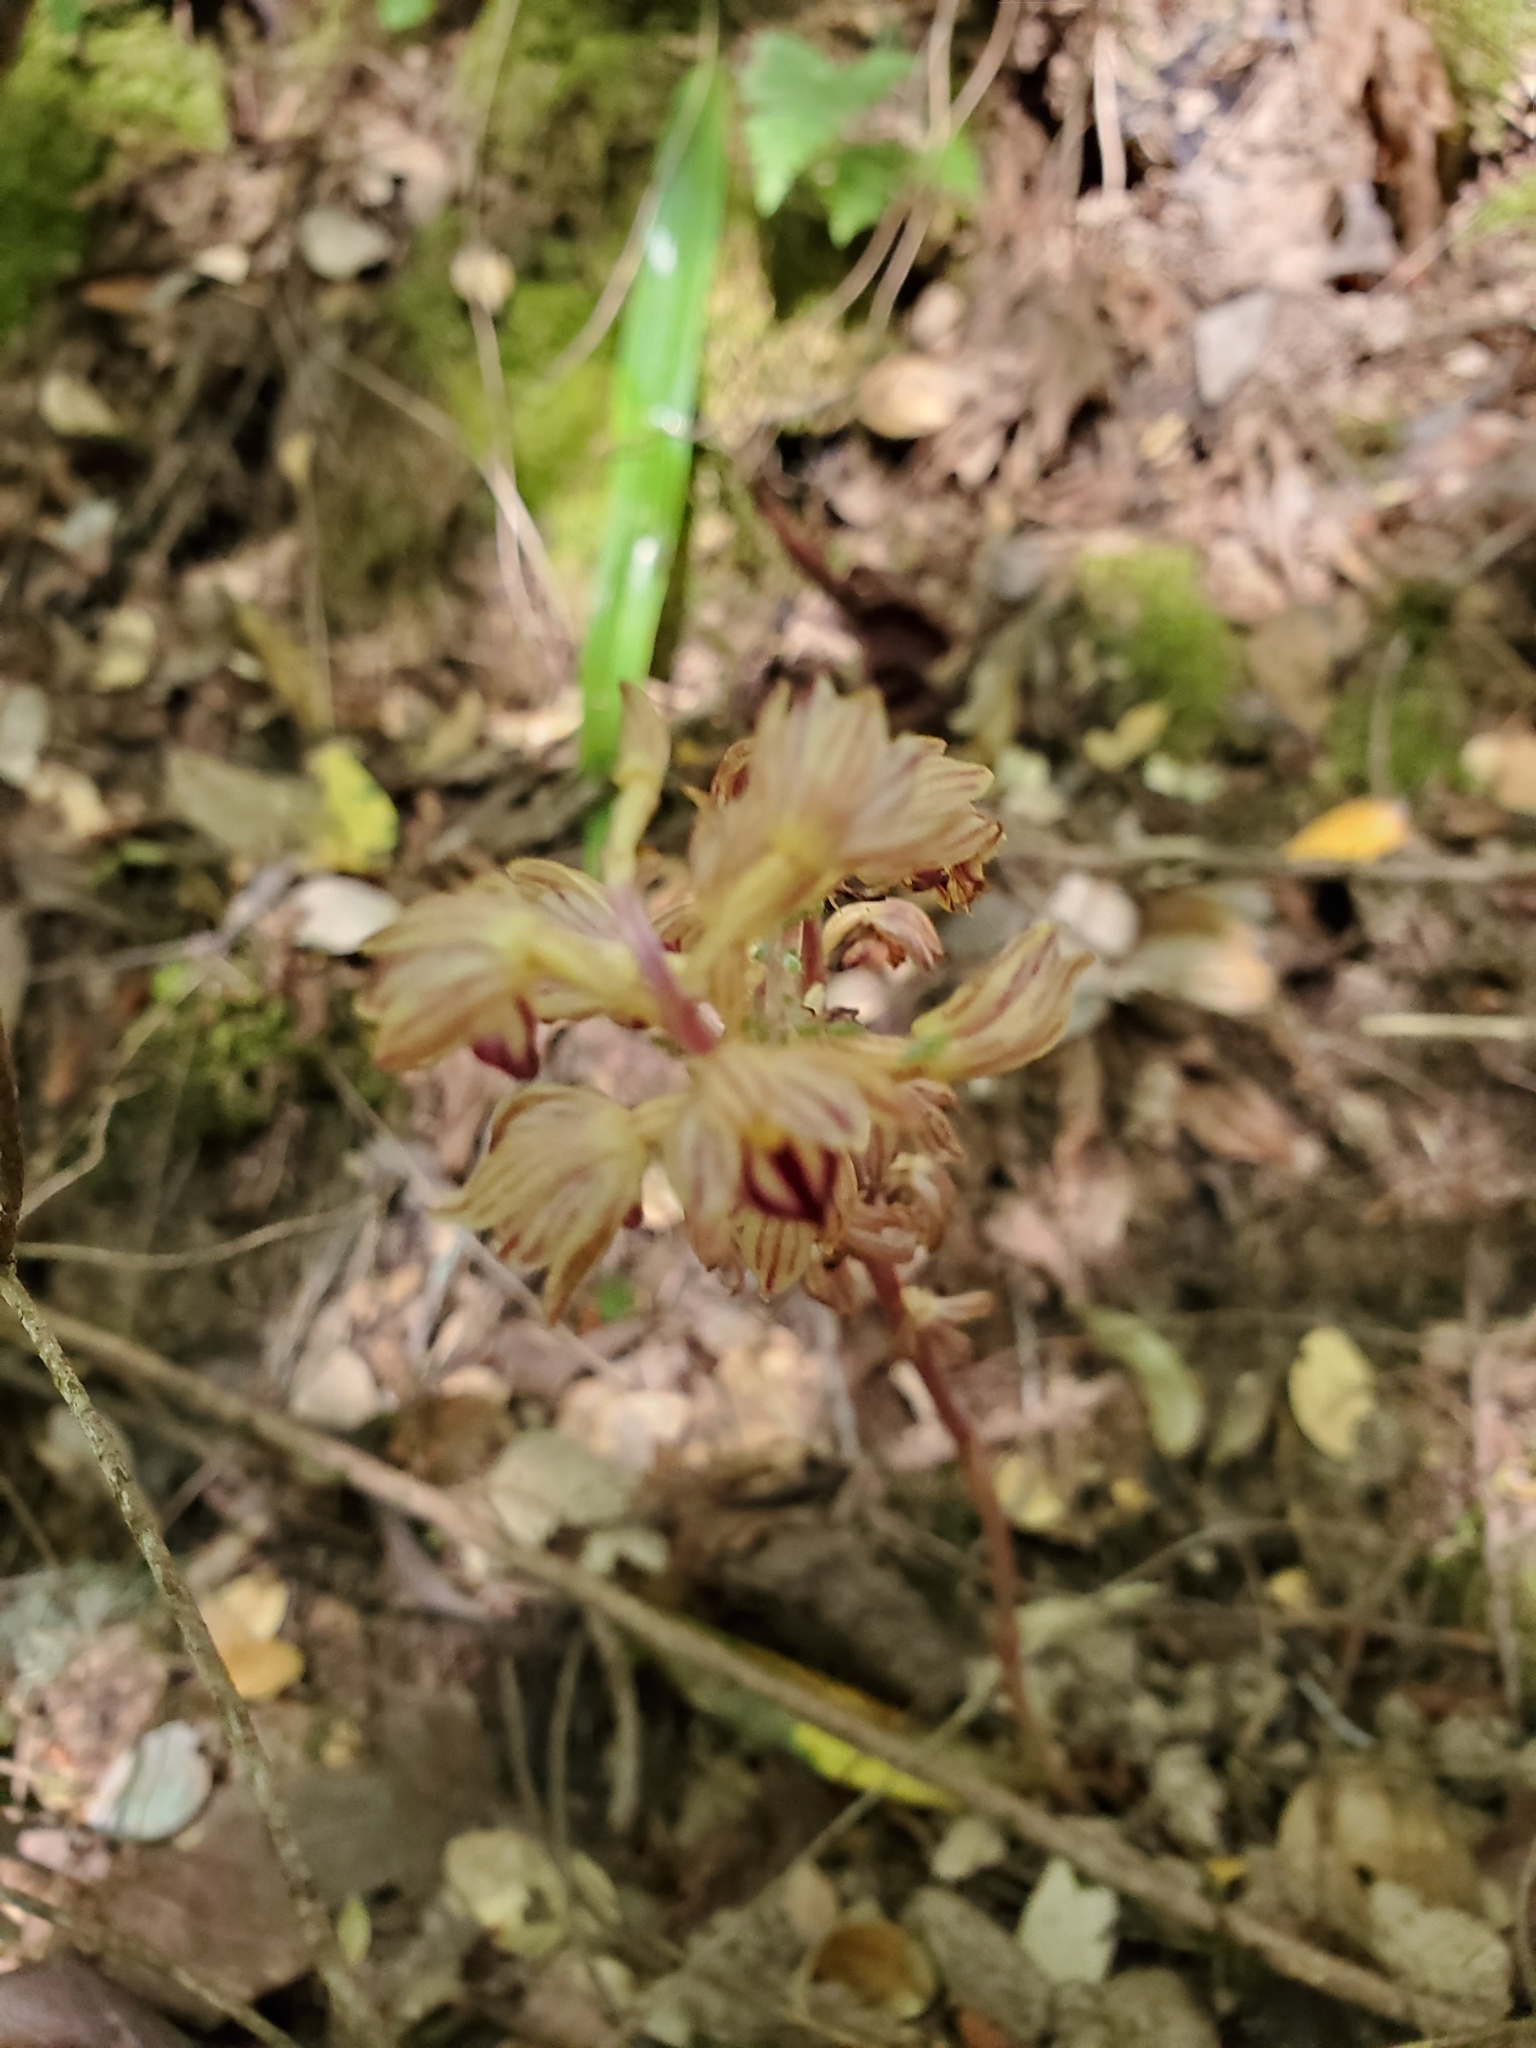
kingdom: Plantae
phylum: Tracheophyta
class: Liliopsida
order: Asparagales
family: Orchidaceae
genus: Corallorhiza
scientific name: Corallorhiza striata
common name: Hooded coralroot
